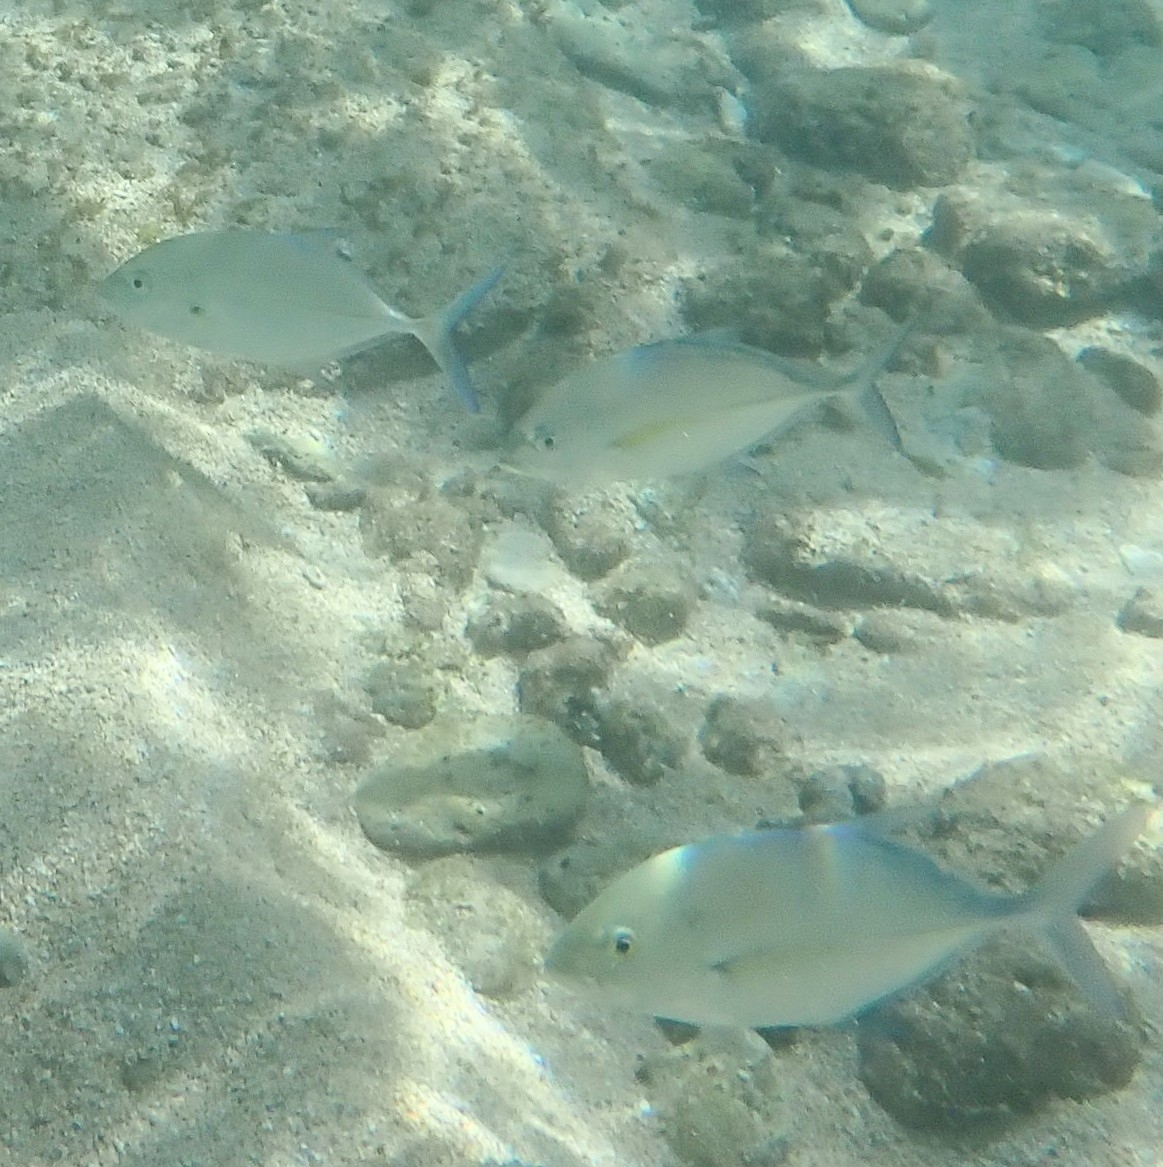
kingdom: Animalia
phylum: Chordata
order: Perciformes
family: Carangidae
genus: Caranx
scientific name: Caranx melampygus
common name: Bluefin trevally
